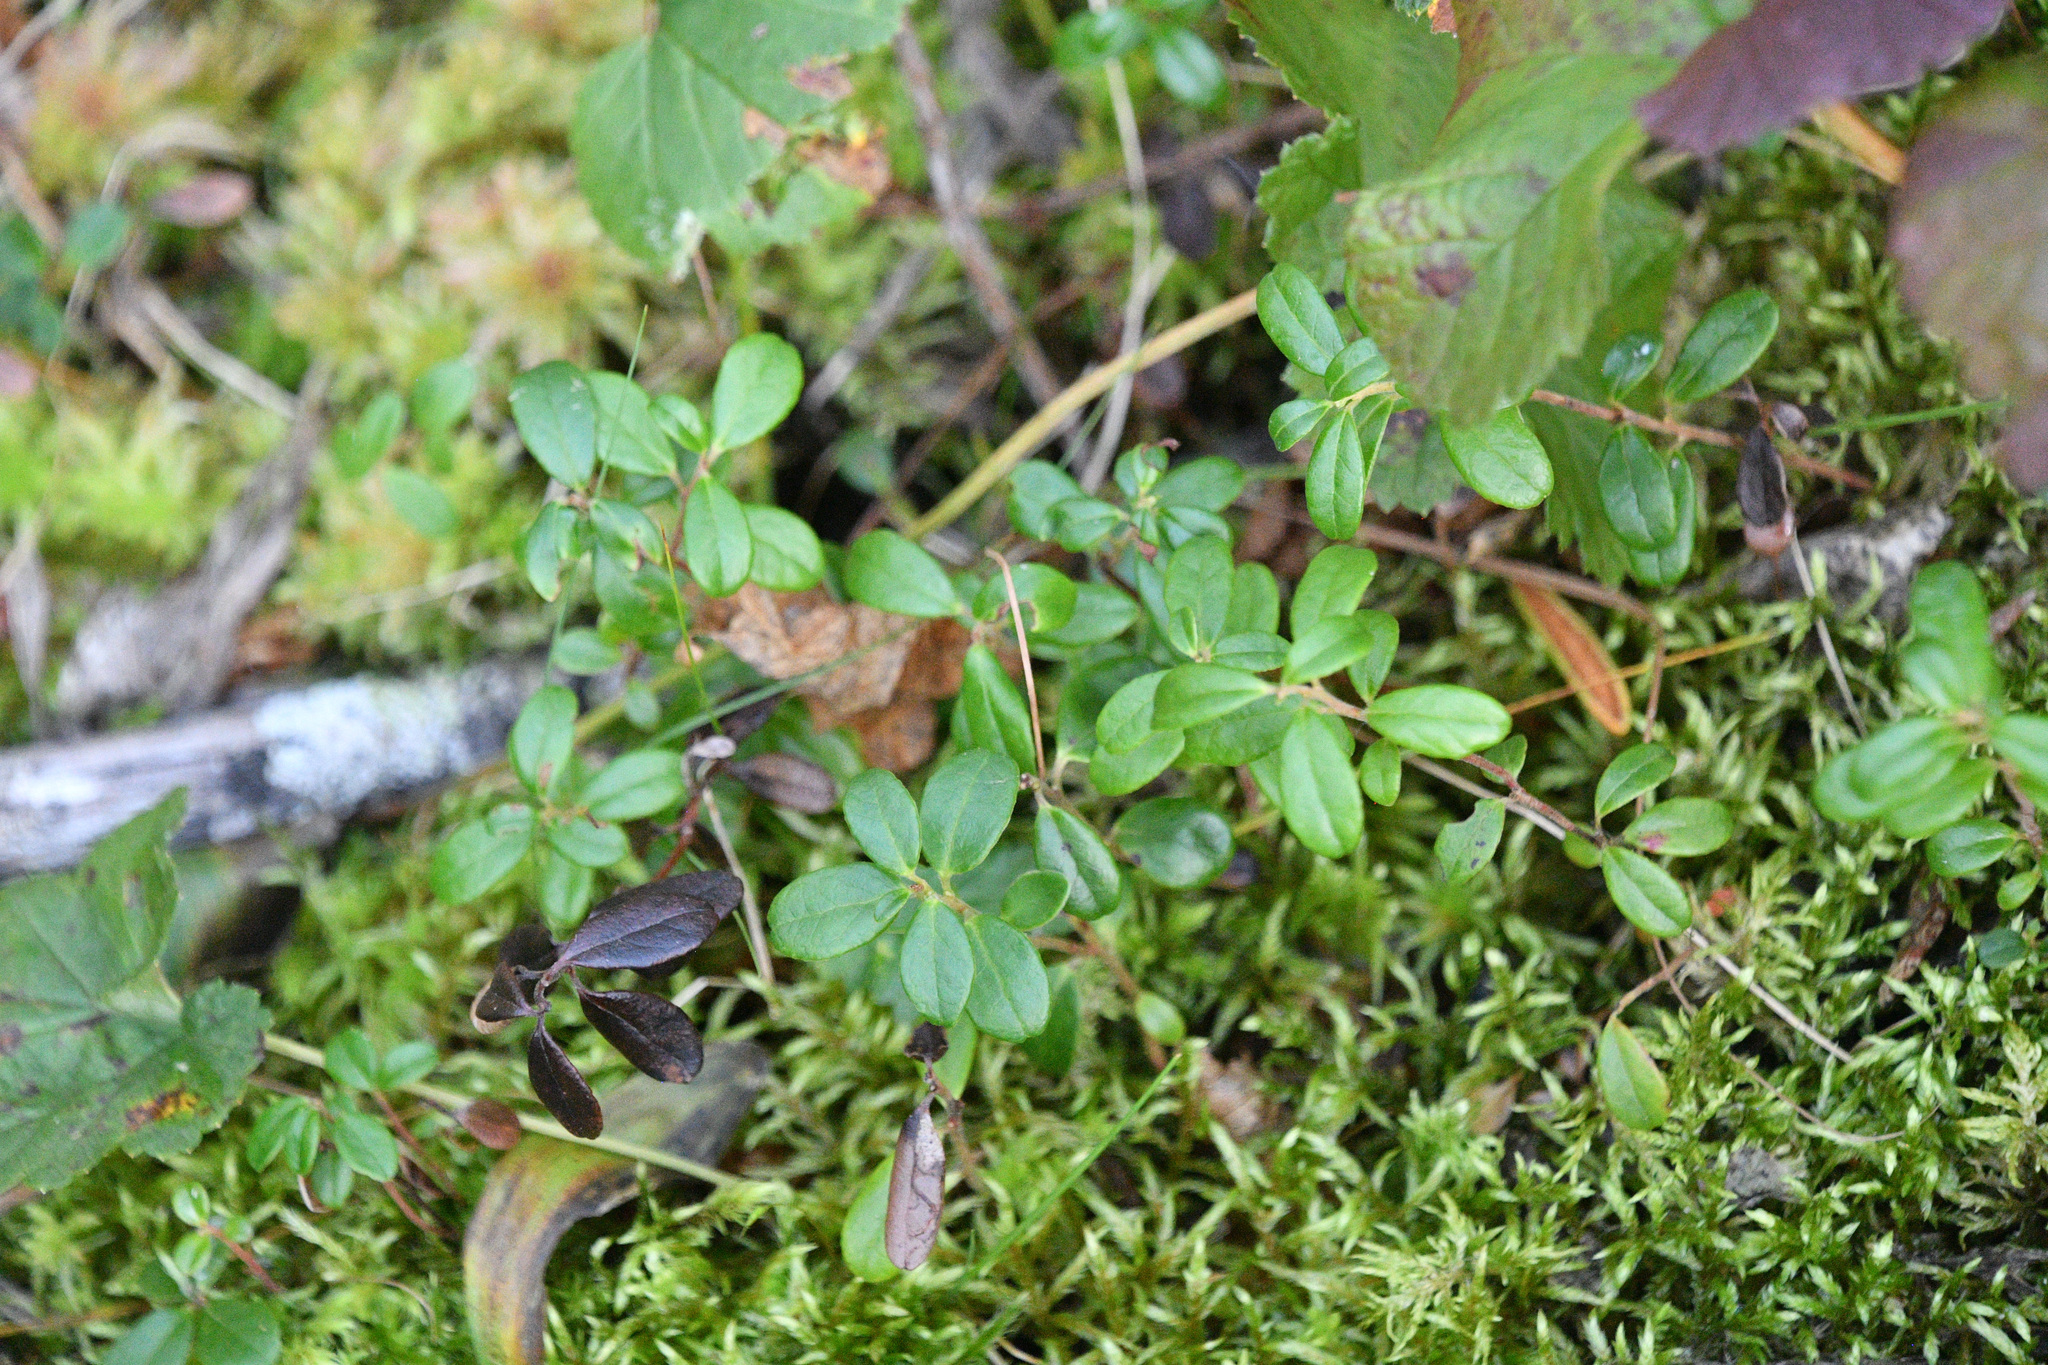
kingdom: Plantae
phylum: Tracheophyta
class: Magnoliopsida
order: Ericales
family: Ericaceae
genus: Vaccinium
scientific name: Vaccinium vitis-idaea
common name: Cowberry
